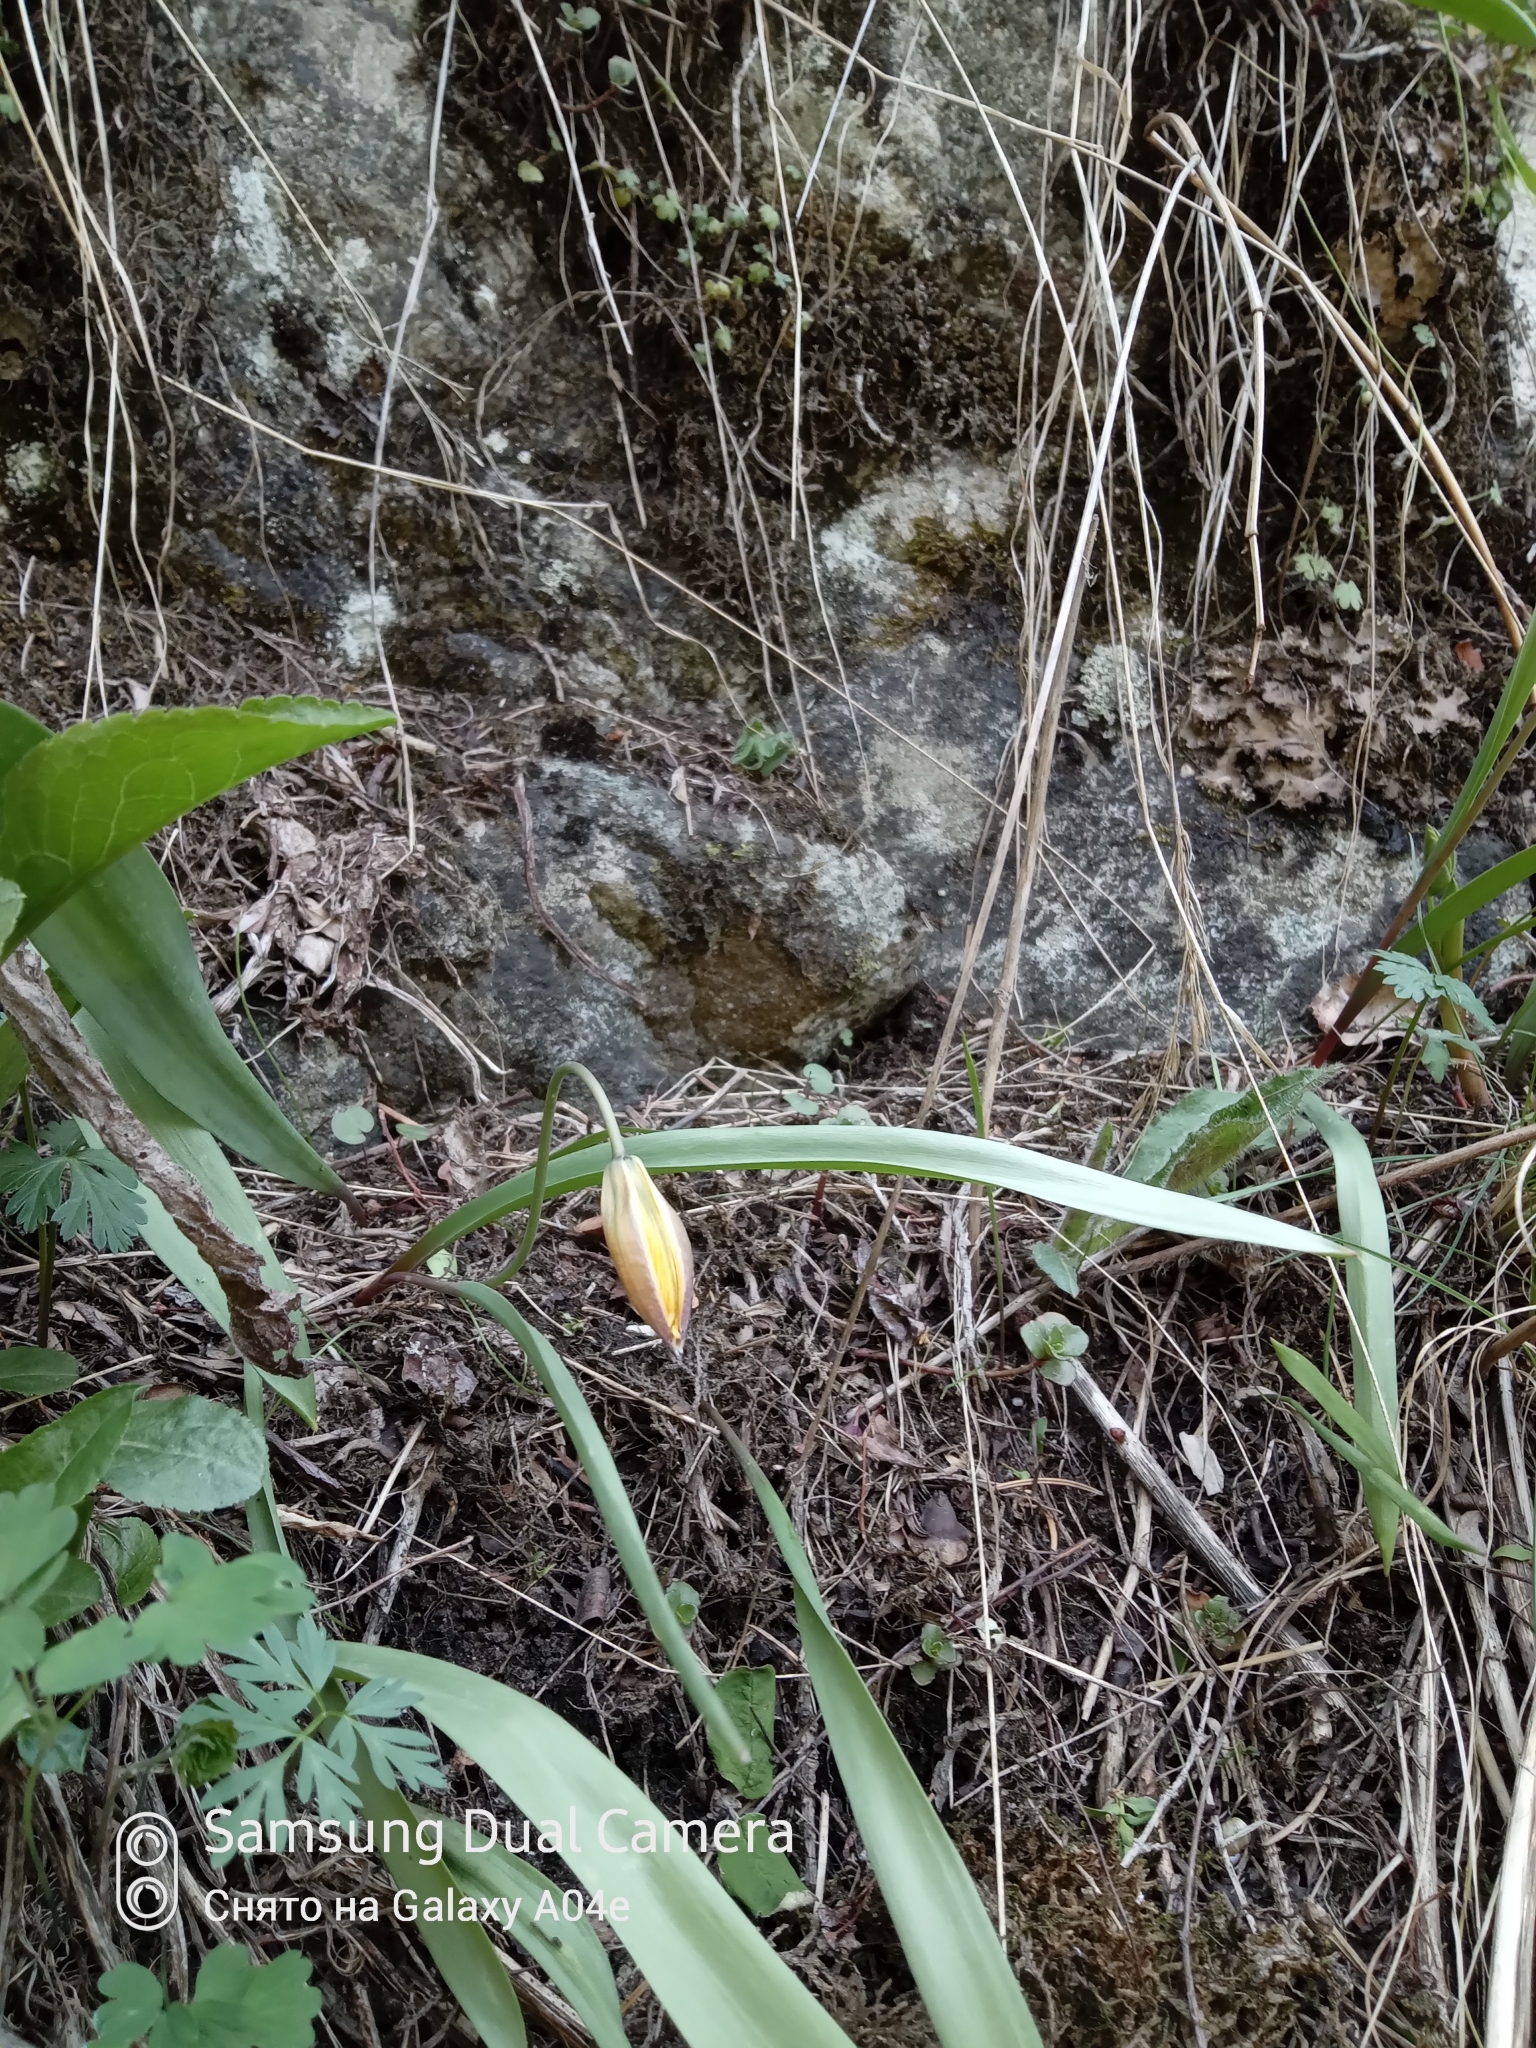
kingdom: Plantae
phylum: Tracheophyta
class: Liliopsida
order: Liliales
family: Liliaceae
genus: Tulipa
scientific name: Tulipa dasystemon
